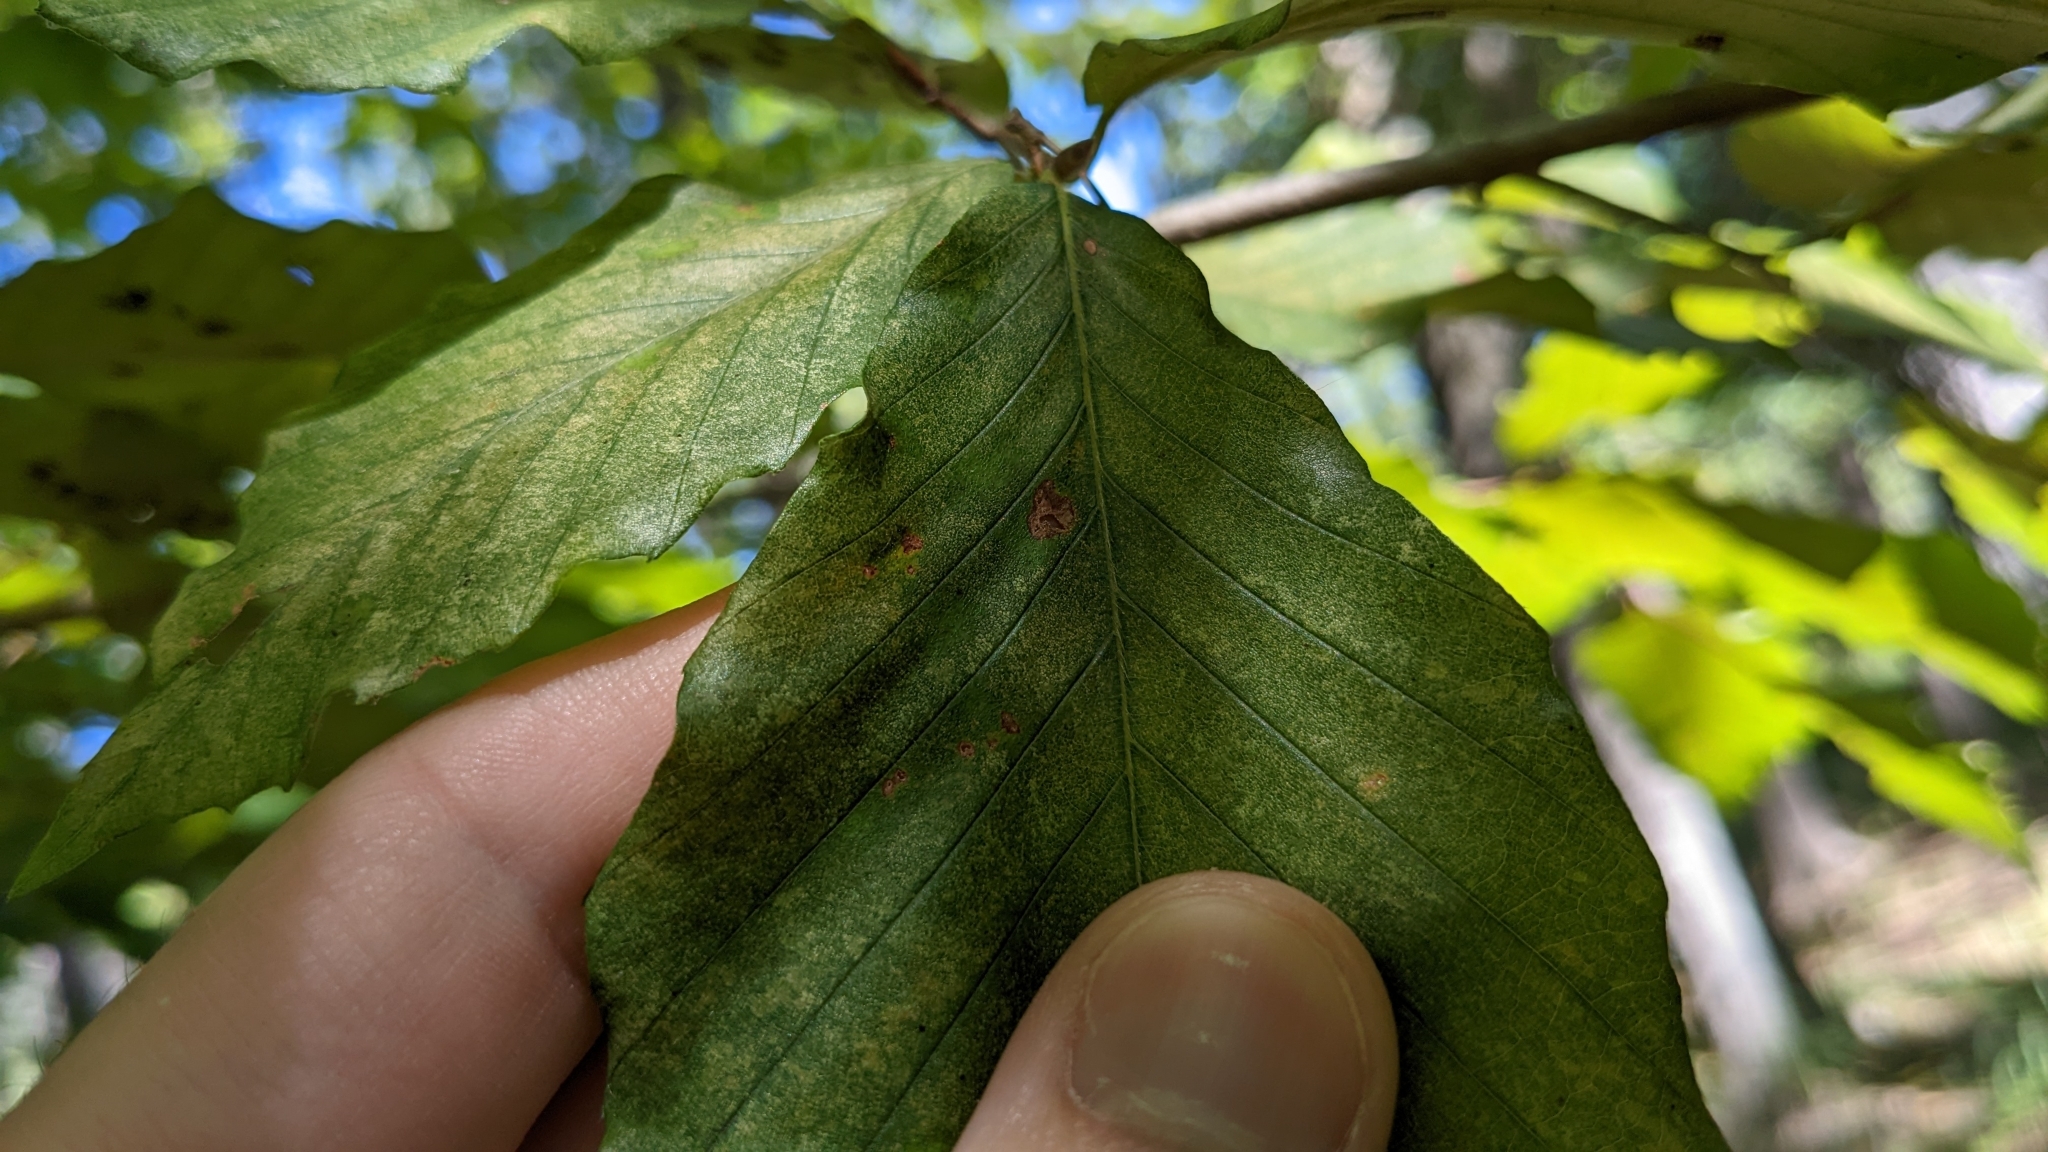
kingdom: Animalia
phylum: Arthropoda
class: Arachnida
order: Trombidiformes
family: Eriophyidae
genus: Acalitus
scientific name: Acalitus
